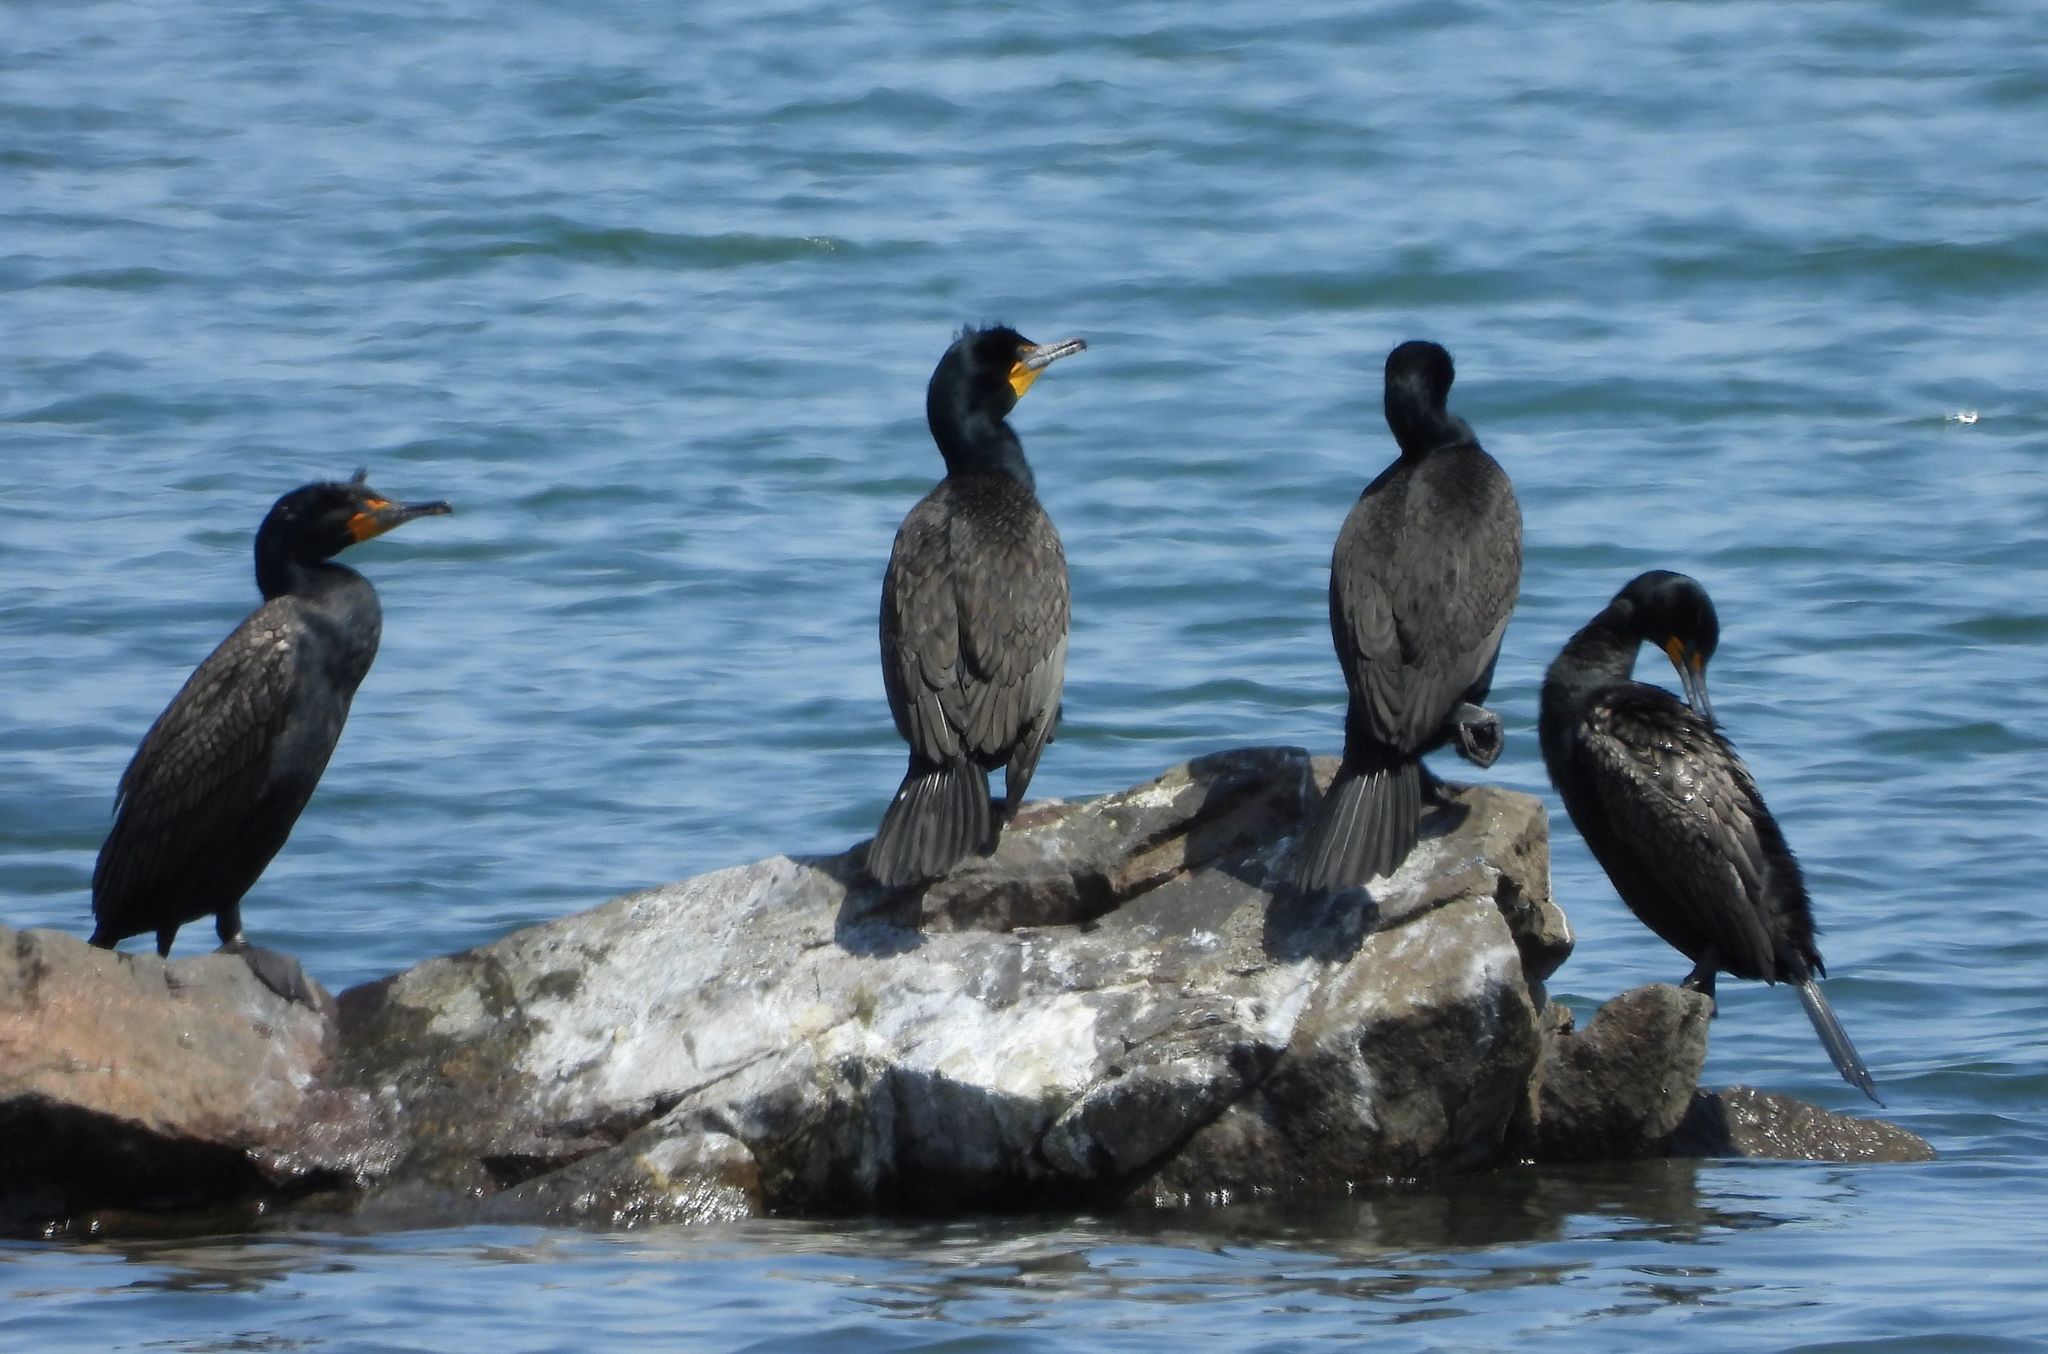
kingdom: Animalia
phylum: Chordata
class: Aves
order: Suliformes
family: Phalacrocoracidae
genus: Phalacrocorax
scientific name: Phalacrocorax auritus
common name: Double-crested cormorant
